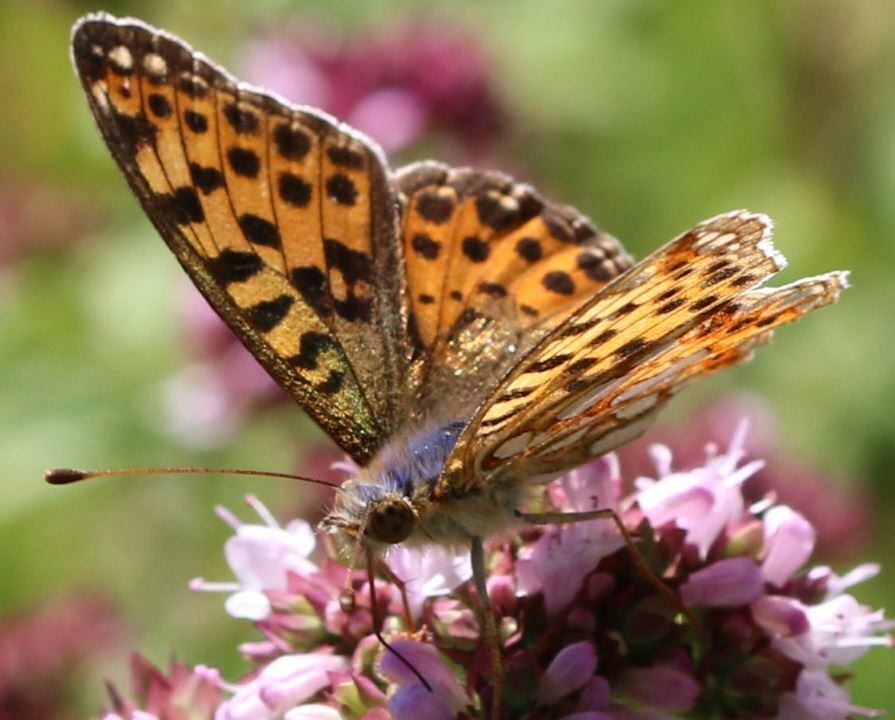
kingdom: Animalia
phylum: Arthropoda
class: Insecta
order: Lepidoptera
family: Nymphalidae
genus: Issoria
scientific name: Issoria lathonia
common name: Queen of spain fritillary
